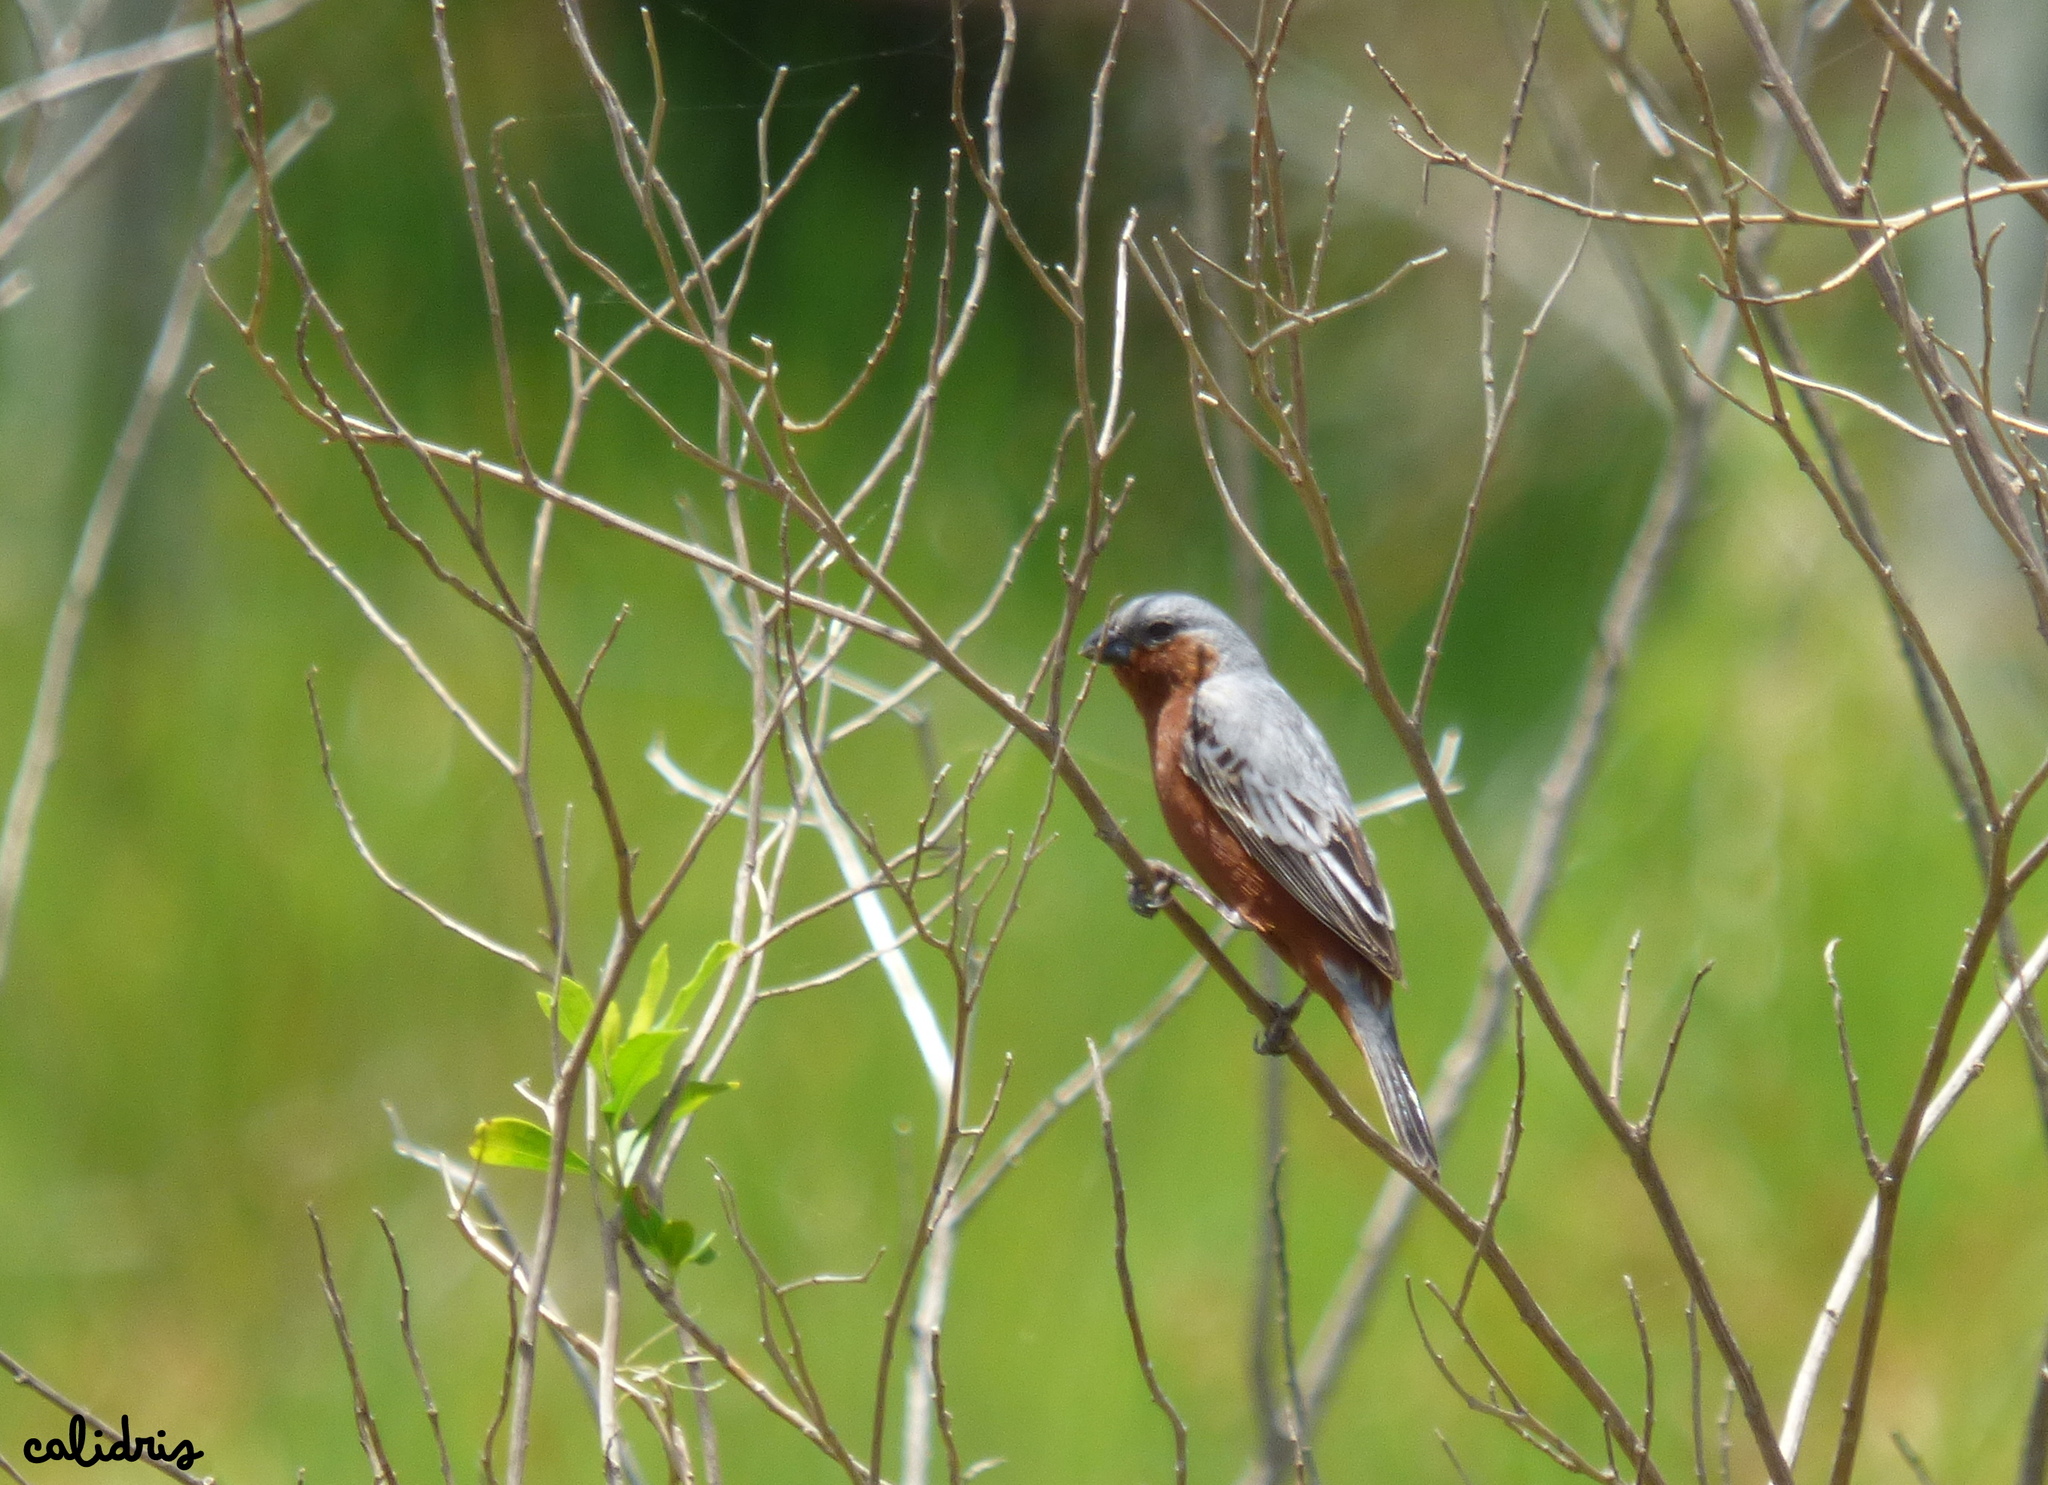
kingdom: Animalia
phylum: Chordata
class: Aves
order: Passeriformes
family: Thraupidae
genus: Sporophila
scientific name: Sporophila hypochroma
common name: Rufous-rumped seedeater
